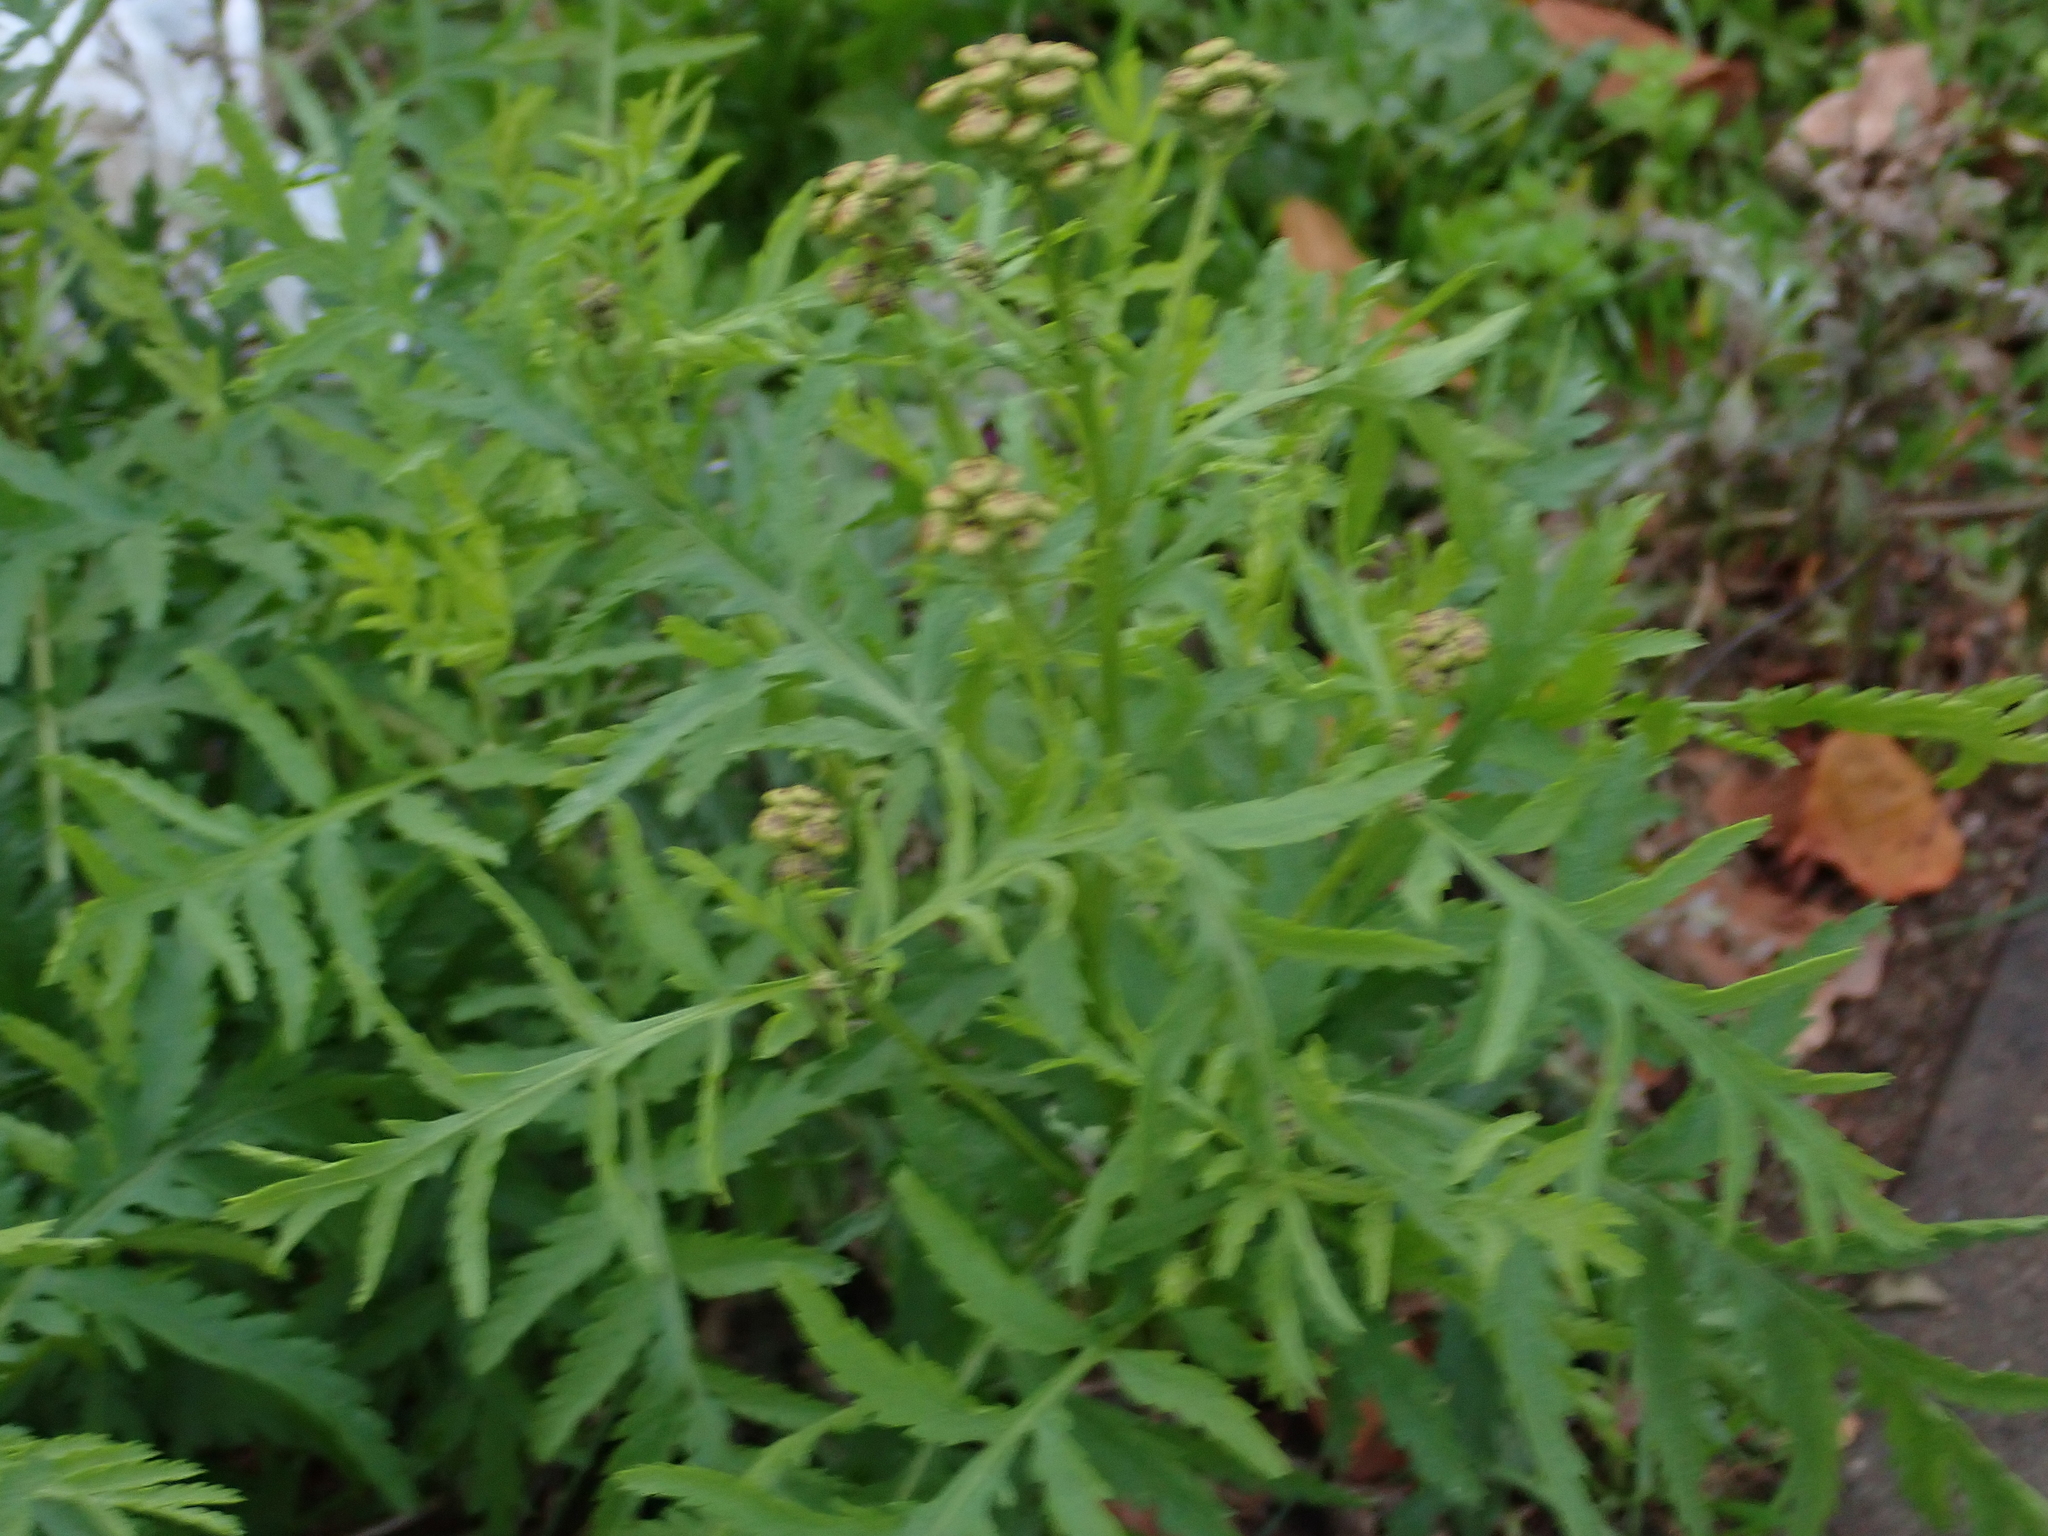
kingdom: Plantae
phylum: Tracheophyta
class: Magnoliopsida
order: Asterales
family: Asteraceae
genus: Tanacetum
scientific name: Tanacetum vulgare
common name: Common tansy
